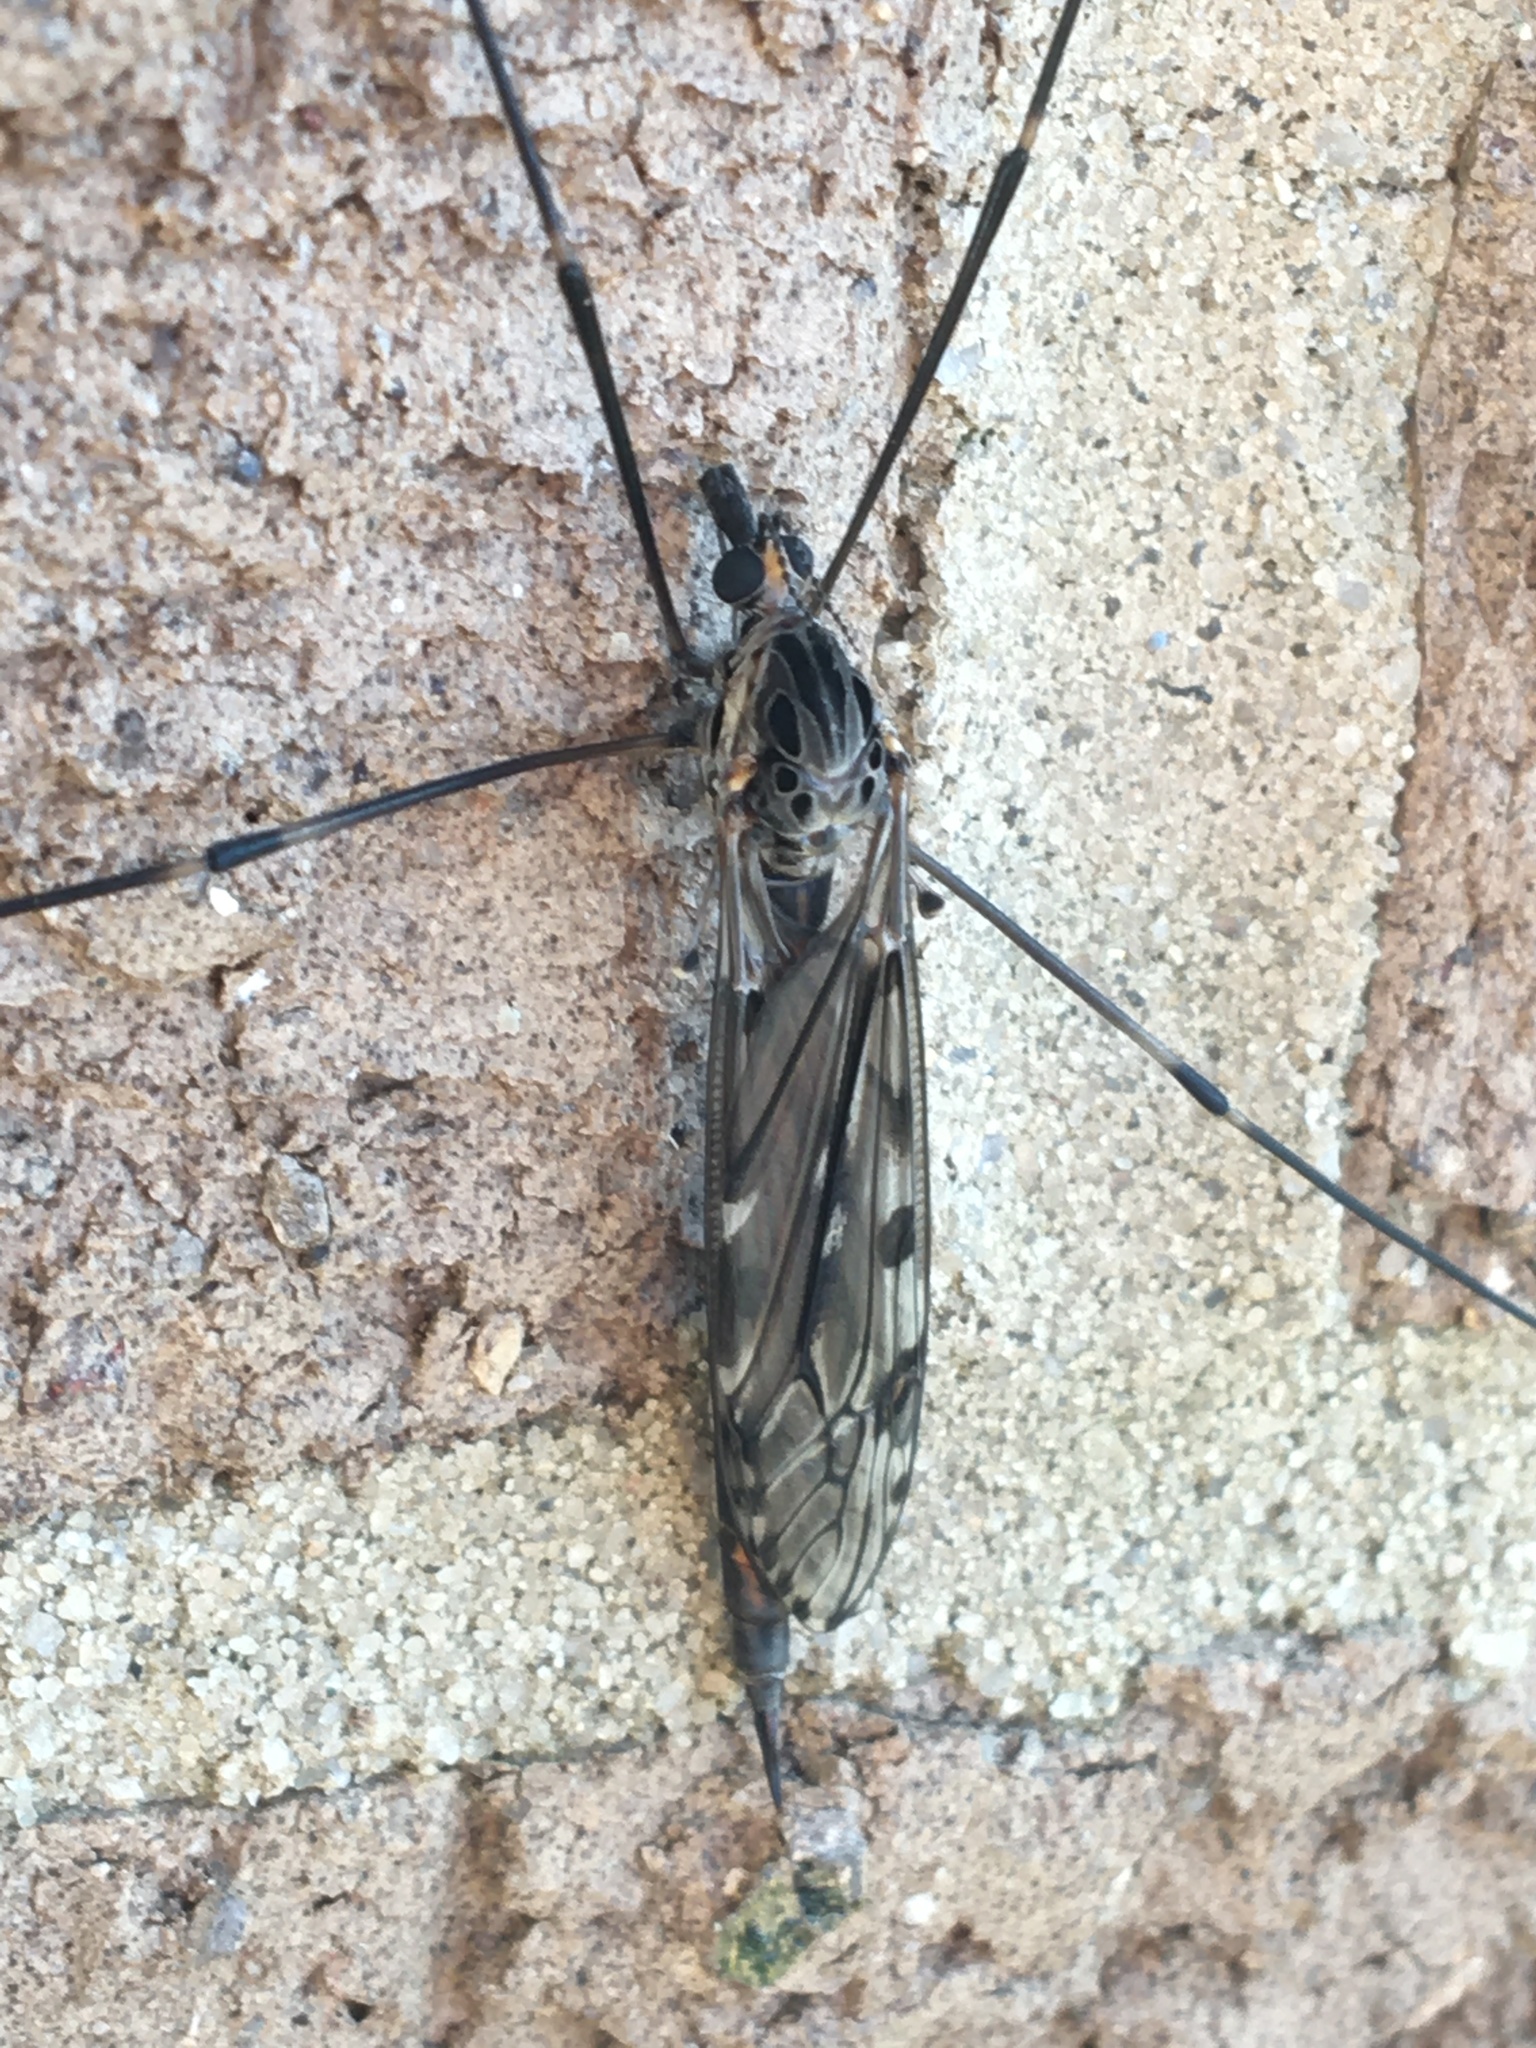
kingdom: Animalia
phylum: Arthropoda
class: Insecta
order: Diptera
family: Tipulidae
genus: Tipula
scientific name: Tipula abdominalis
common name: Giant crane fly
